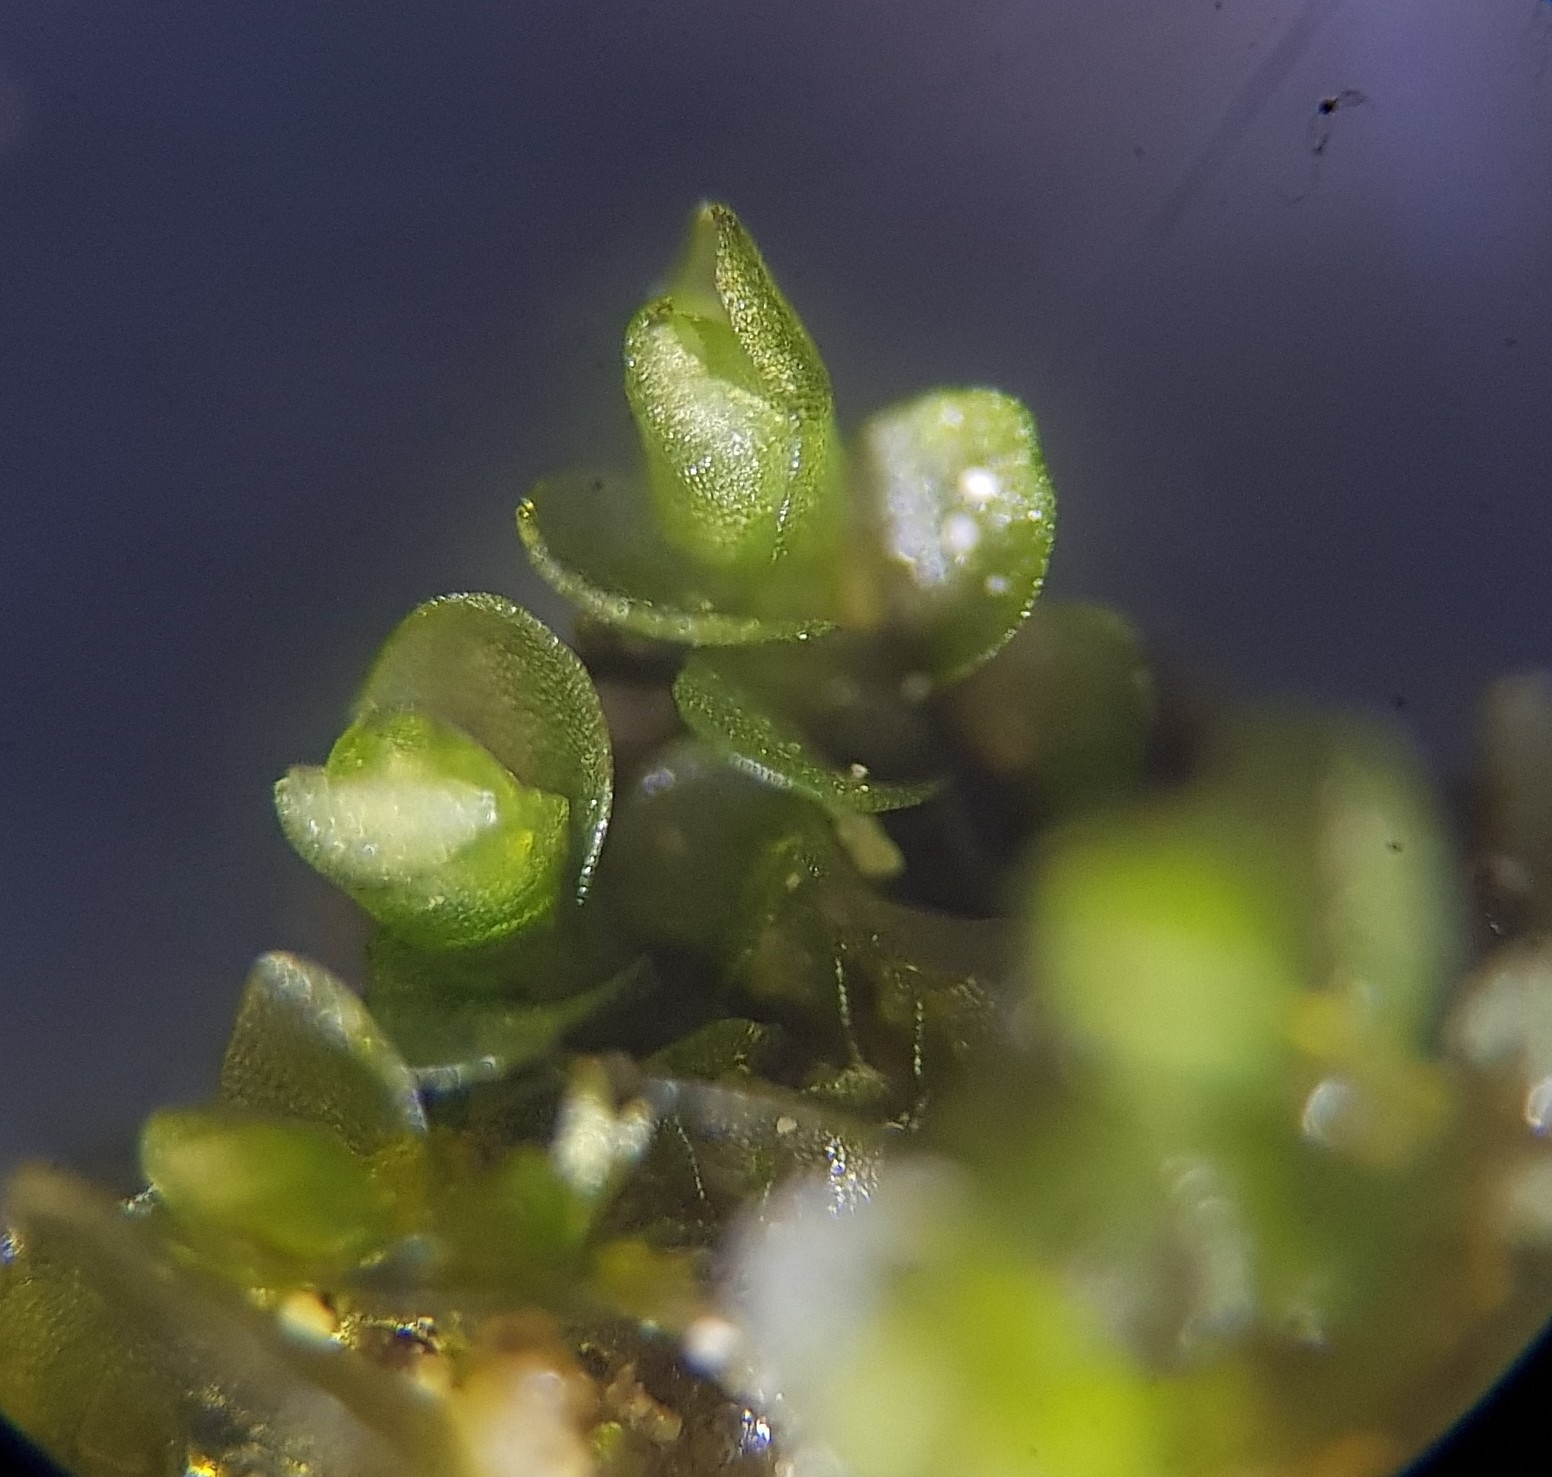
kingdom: Plantae
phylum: Marchantiophyta
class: Jungermanniopsida
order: Jungermanniales
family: Jungermanniaceae
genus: Jungermannia
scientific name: Jungermannia atrovirens
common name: Dark-green flapwort
